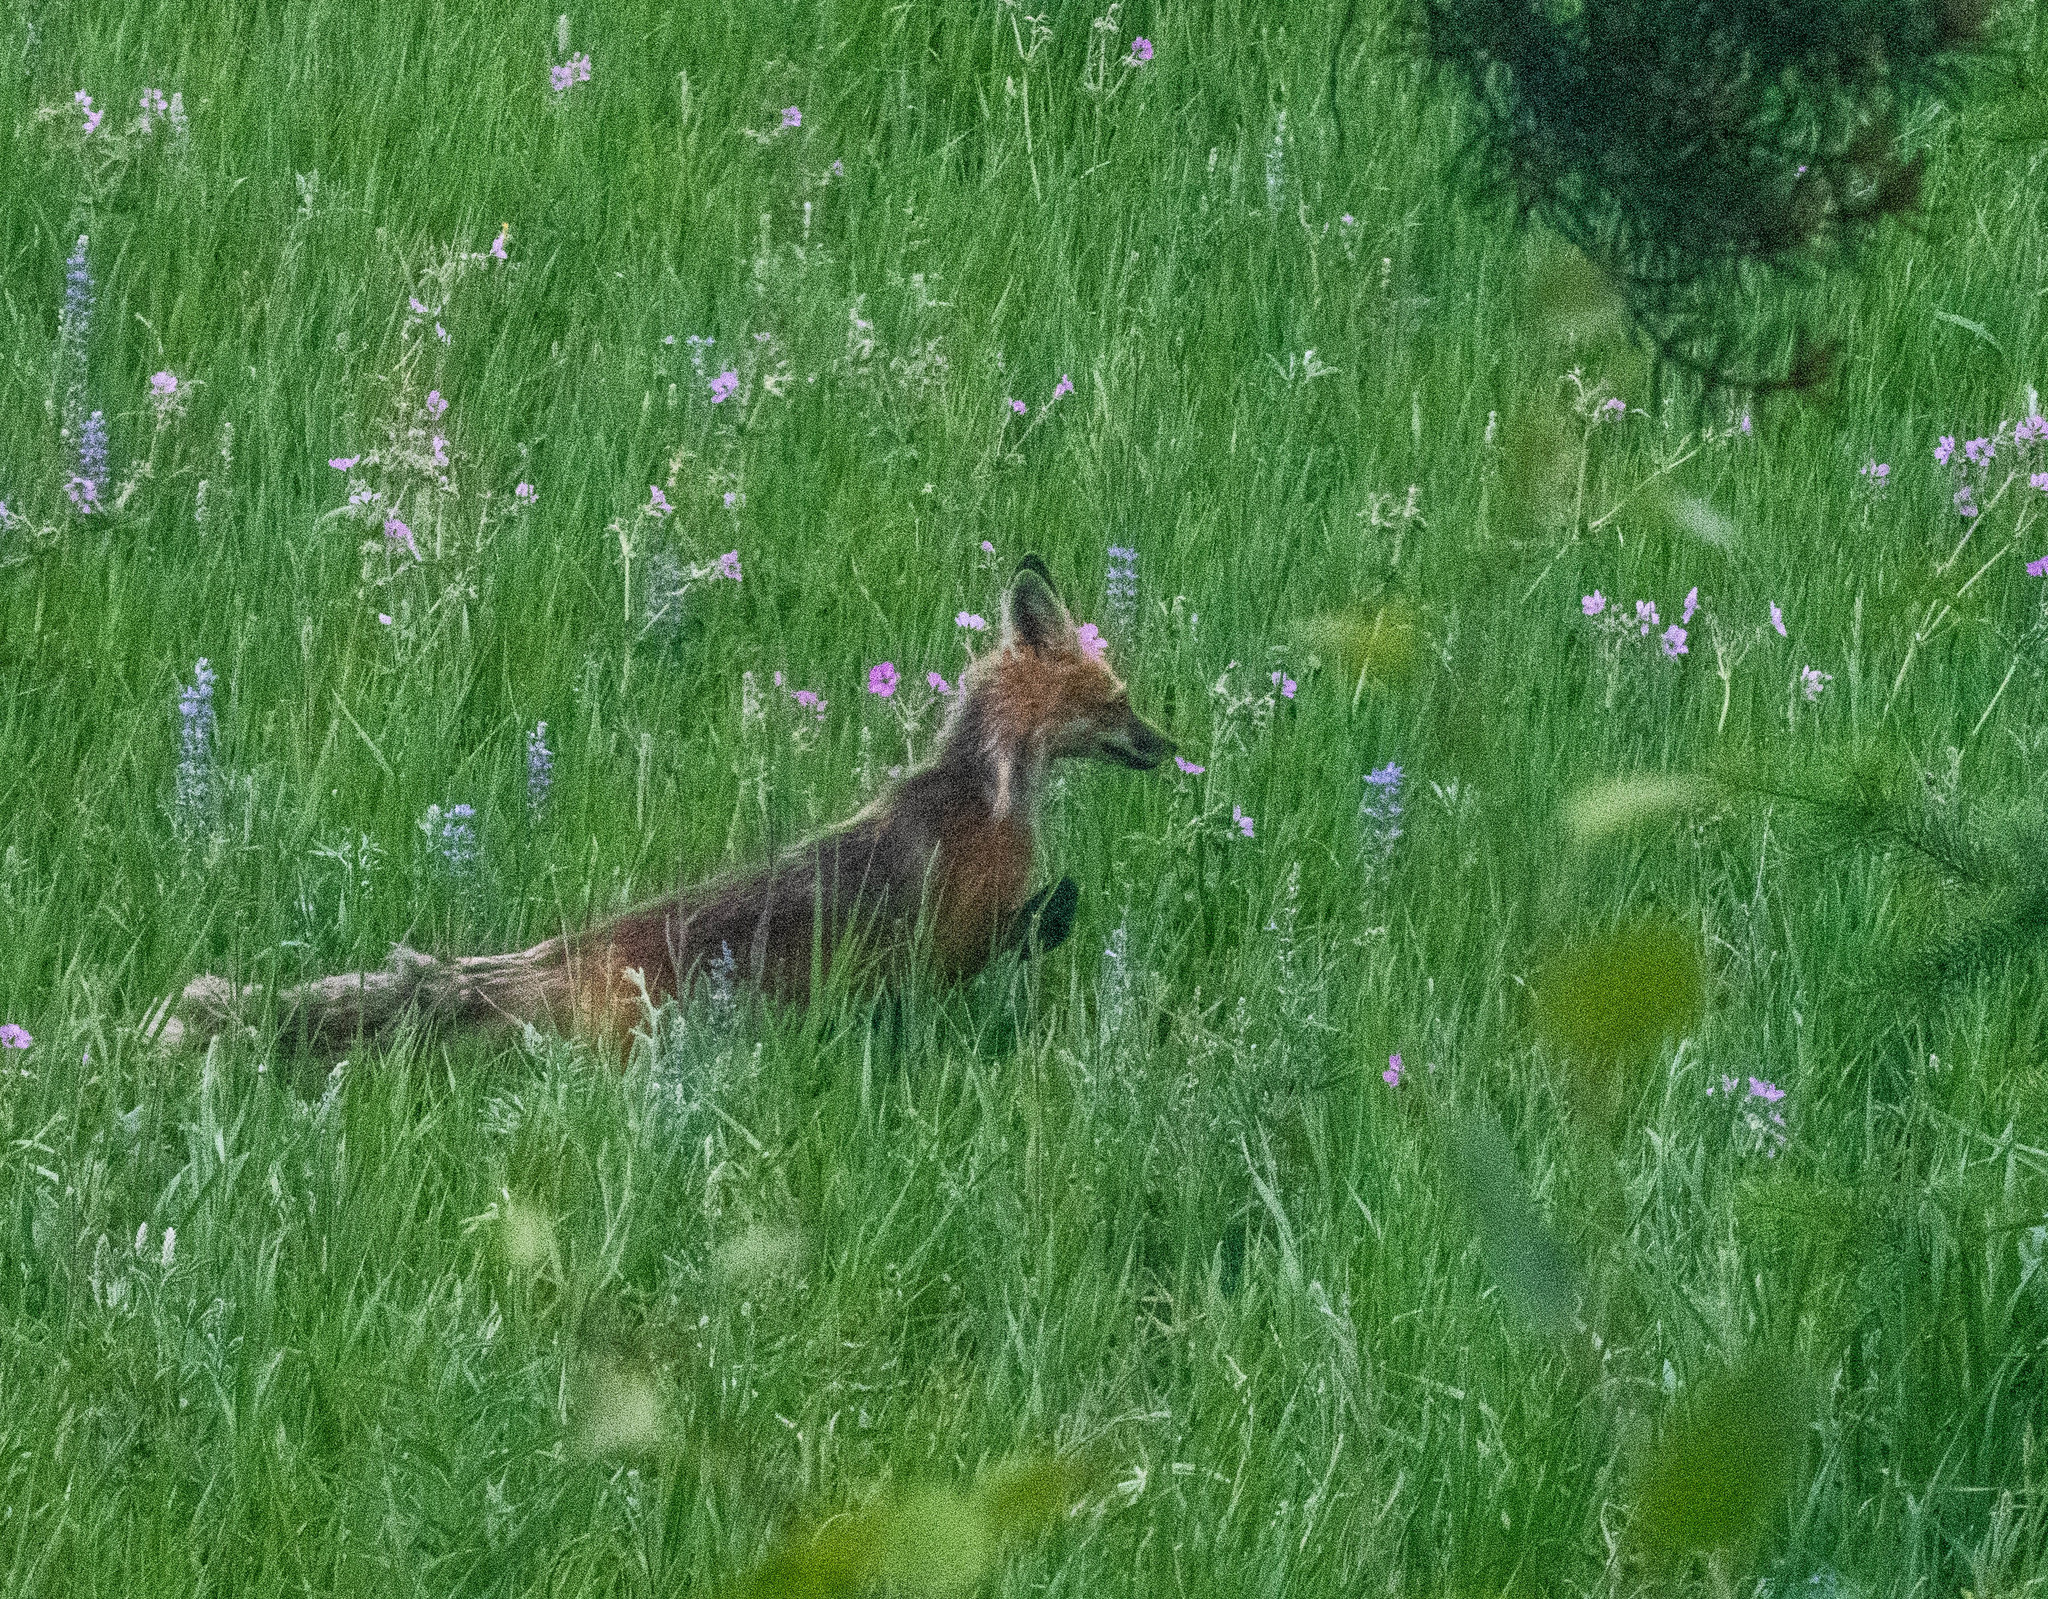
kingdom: Animalia
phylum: Chordata
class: Mammalia
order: Carnivora
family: Canidae
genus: Vulpes
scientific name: Vulpes vulpes
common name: Red fox
